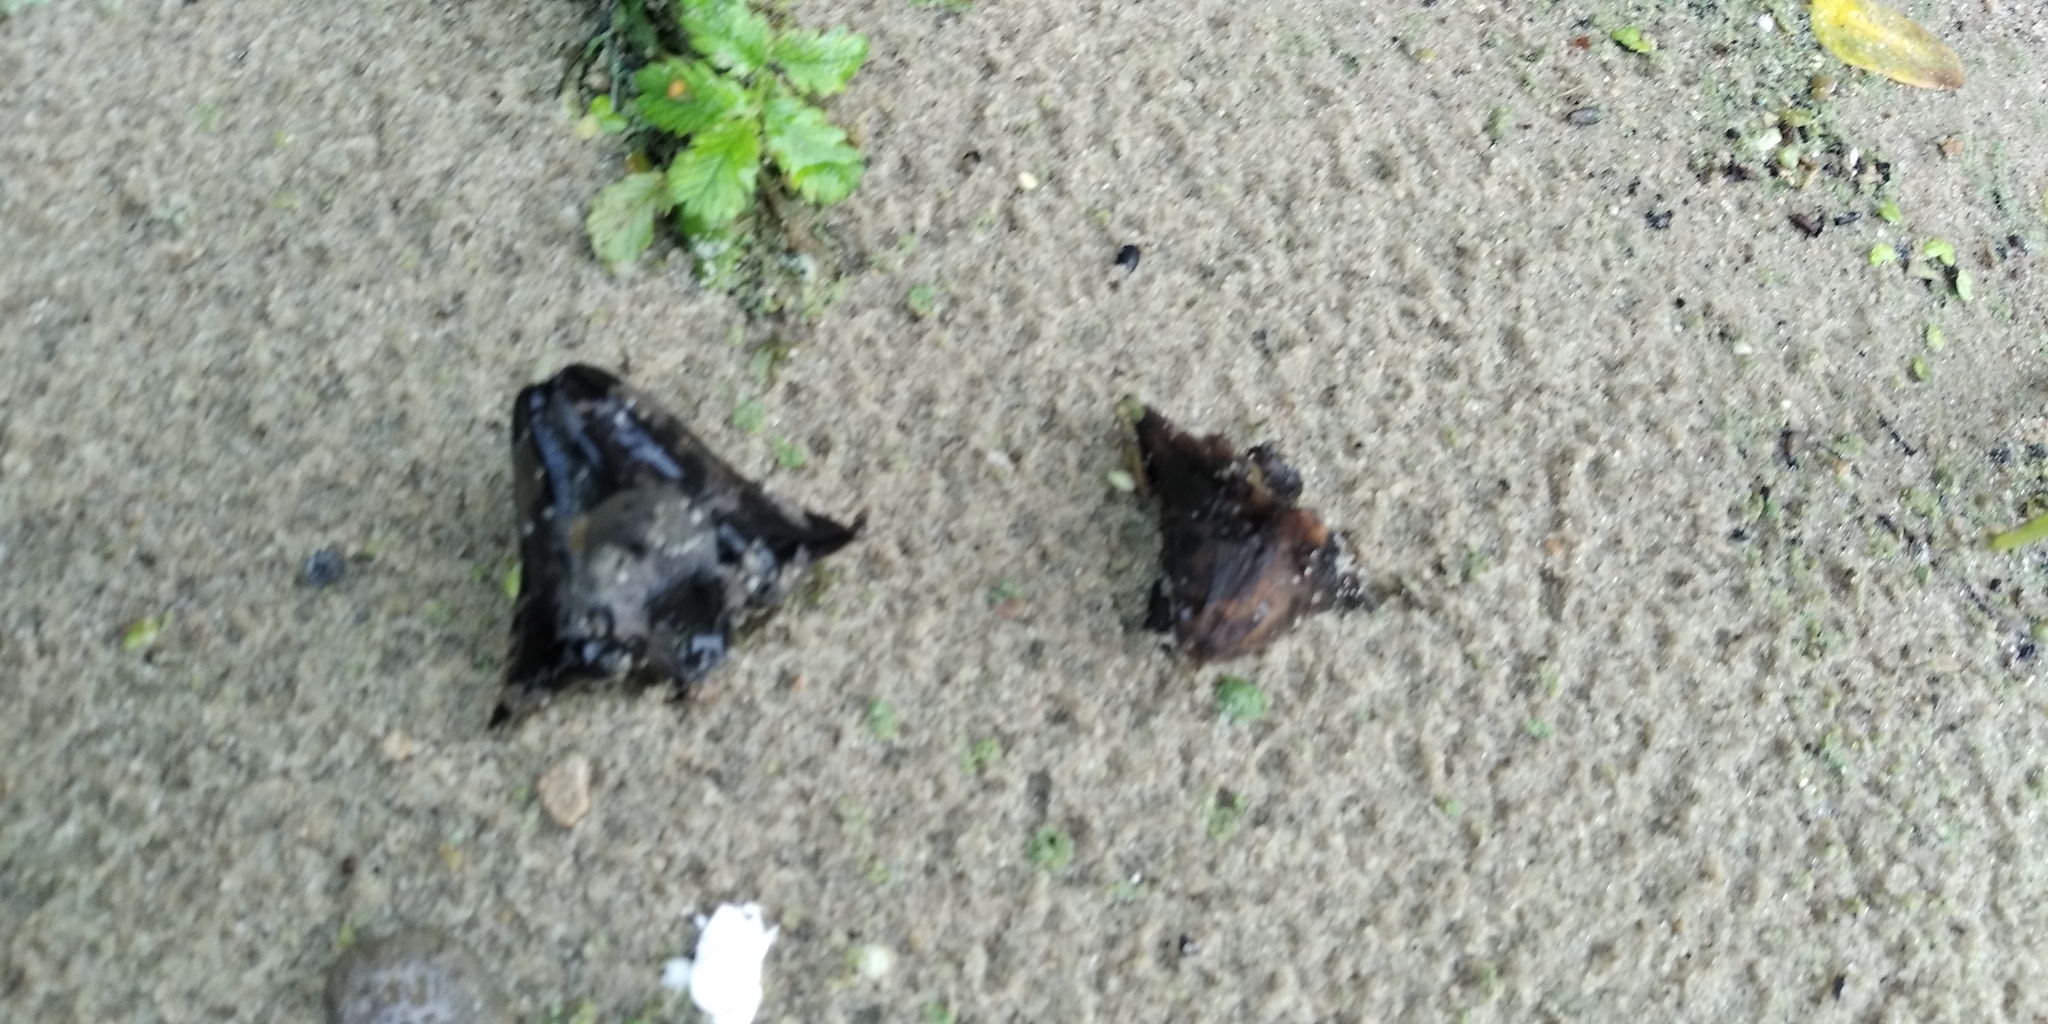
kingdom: Plantae
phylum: Tracheophyta
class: Magnoliopsida
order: Myrtales
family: Lythraceae
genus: Trapa
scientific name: Trapa natans
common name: Water chestnut
